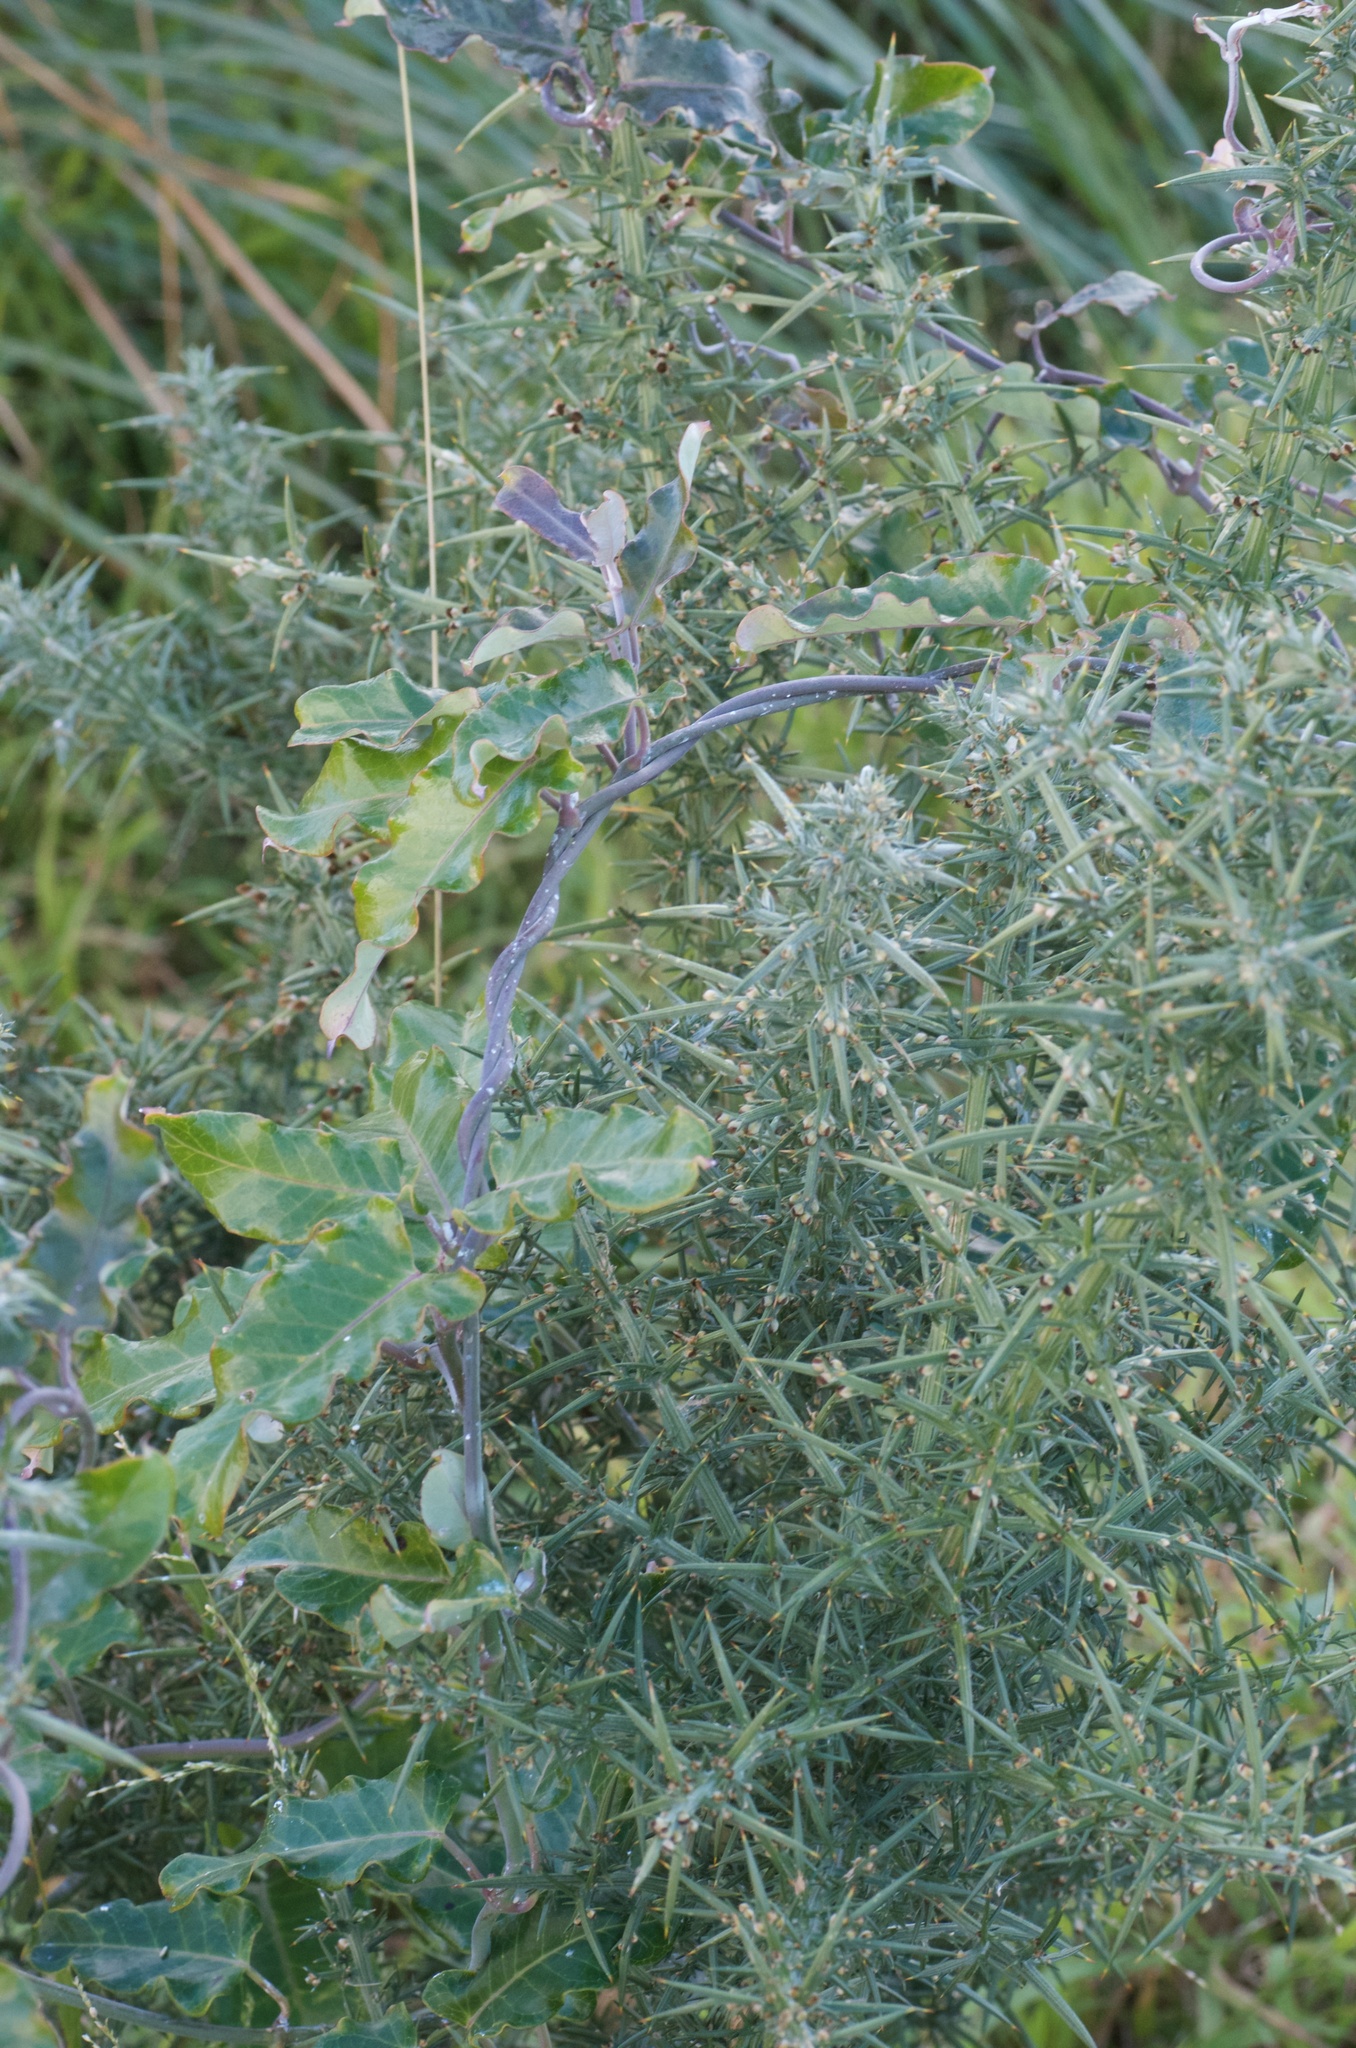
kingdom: Plantae
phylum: Tracheophyta
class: Magnoliopsida
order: Gentianales
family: Apocynaceae
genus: Araujia
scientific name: Araujia sericifera
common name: White bladderflower
